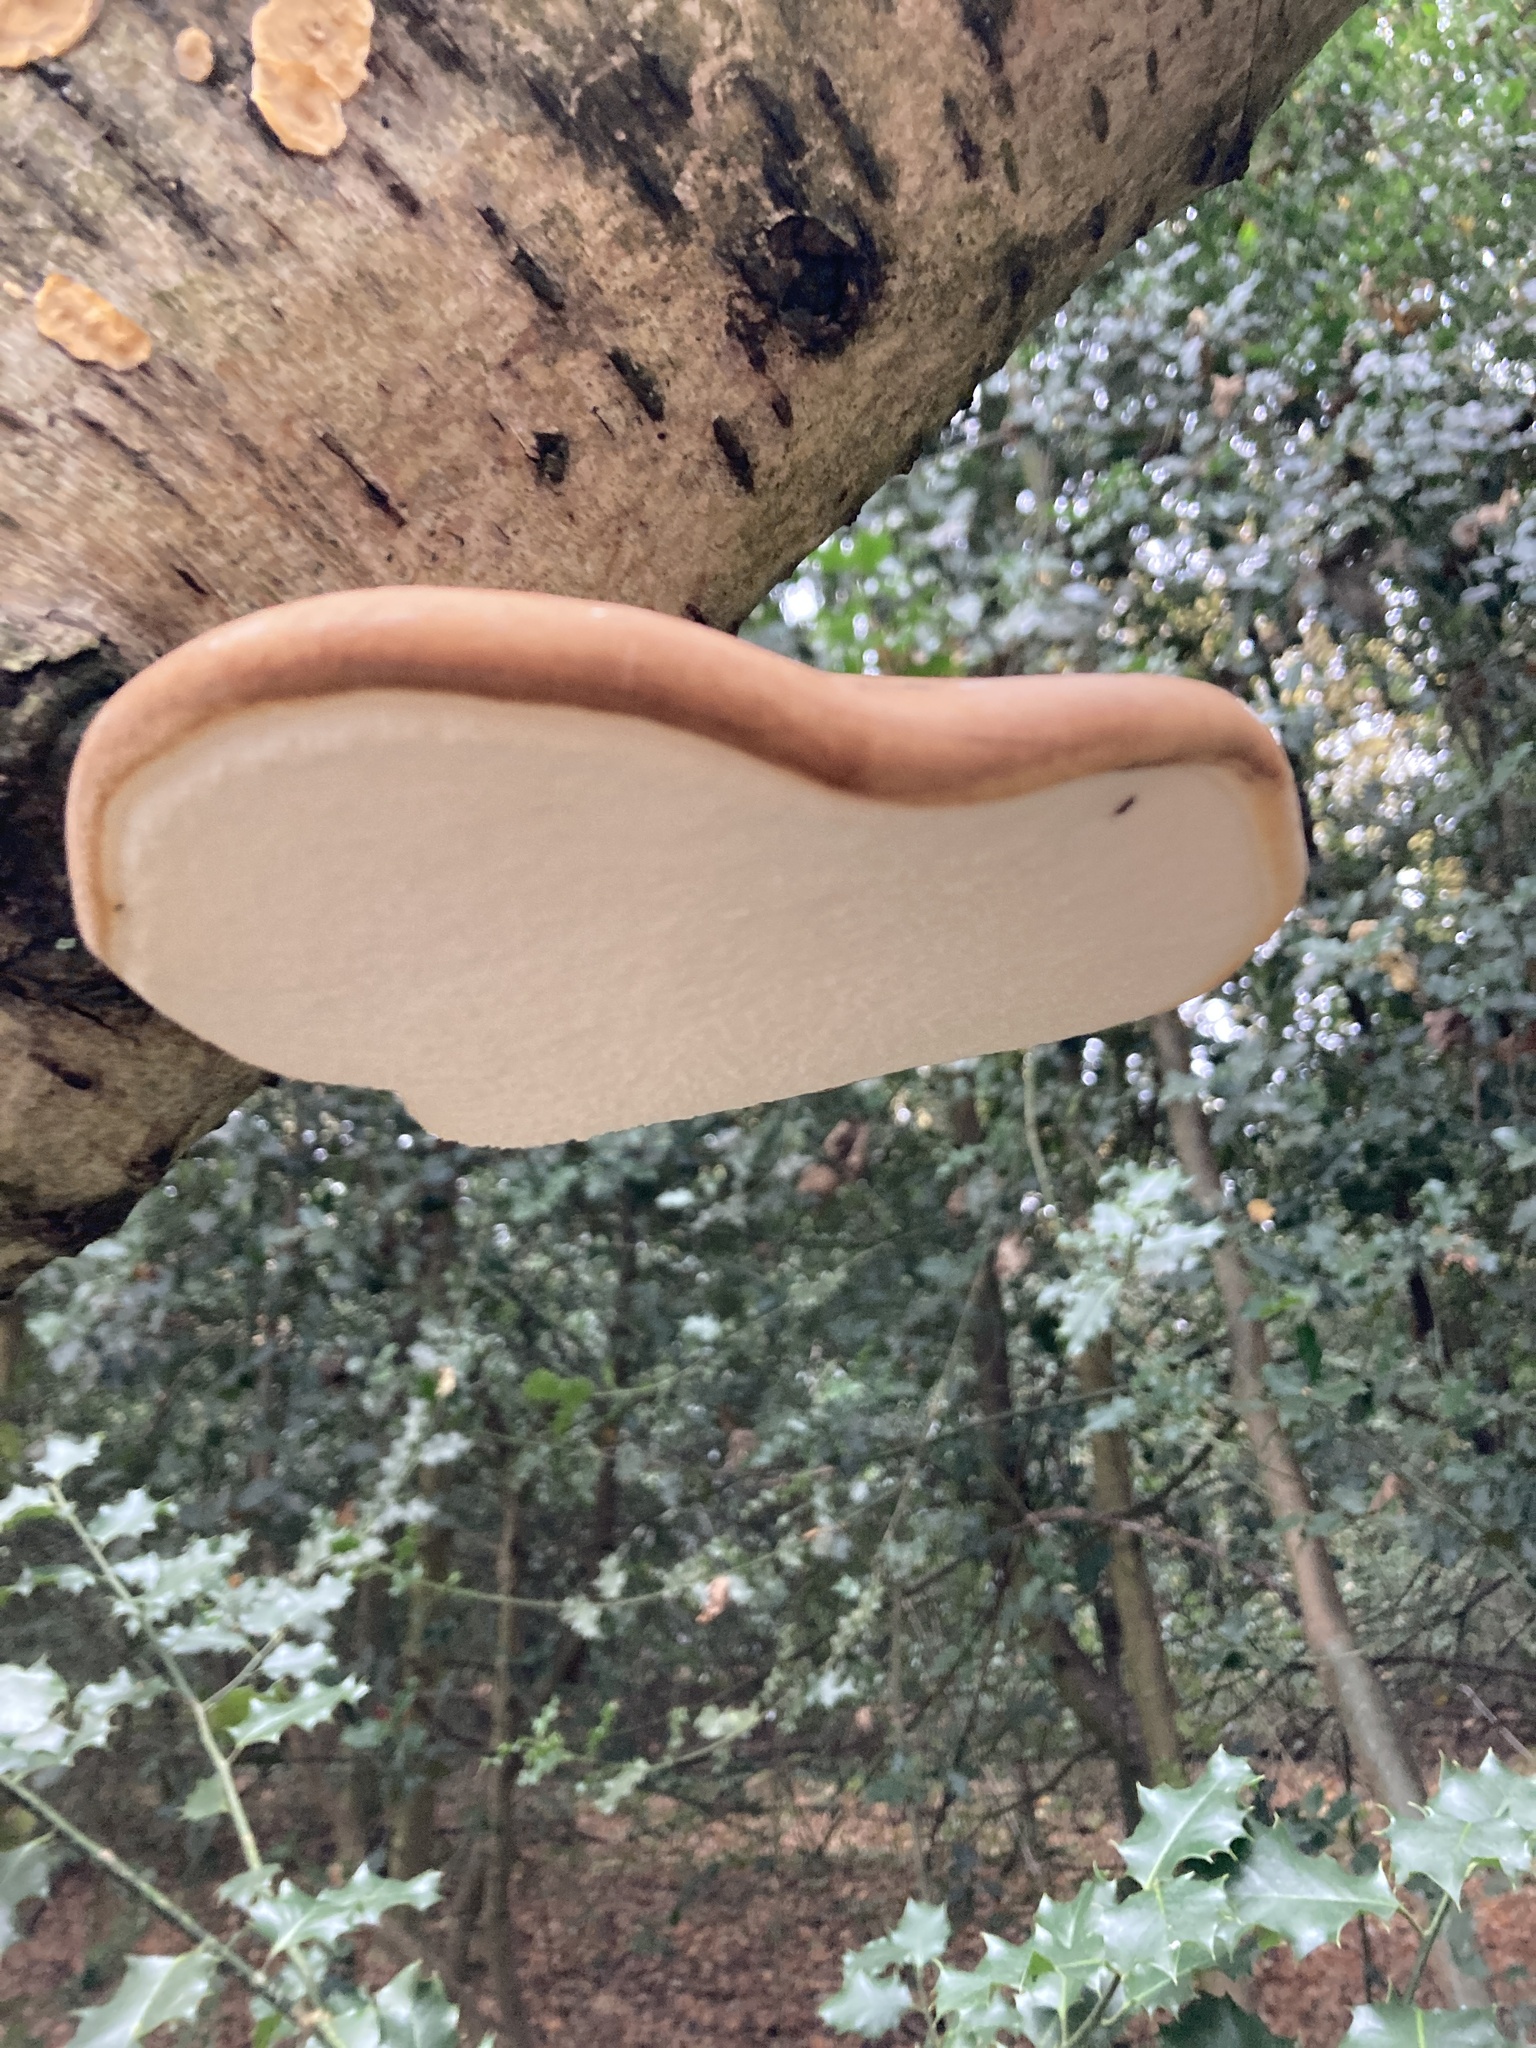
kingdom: Fungi
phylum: Basidiomycota
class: Agaricomycetes
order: Polyporales
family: Fomitopsidaceae
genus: Fomitopsis
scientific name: Fomitopsis betulina
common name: Birch polypore
